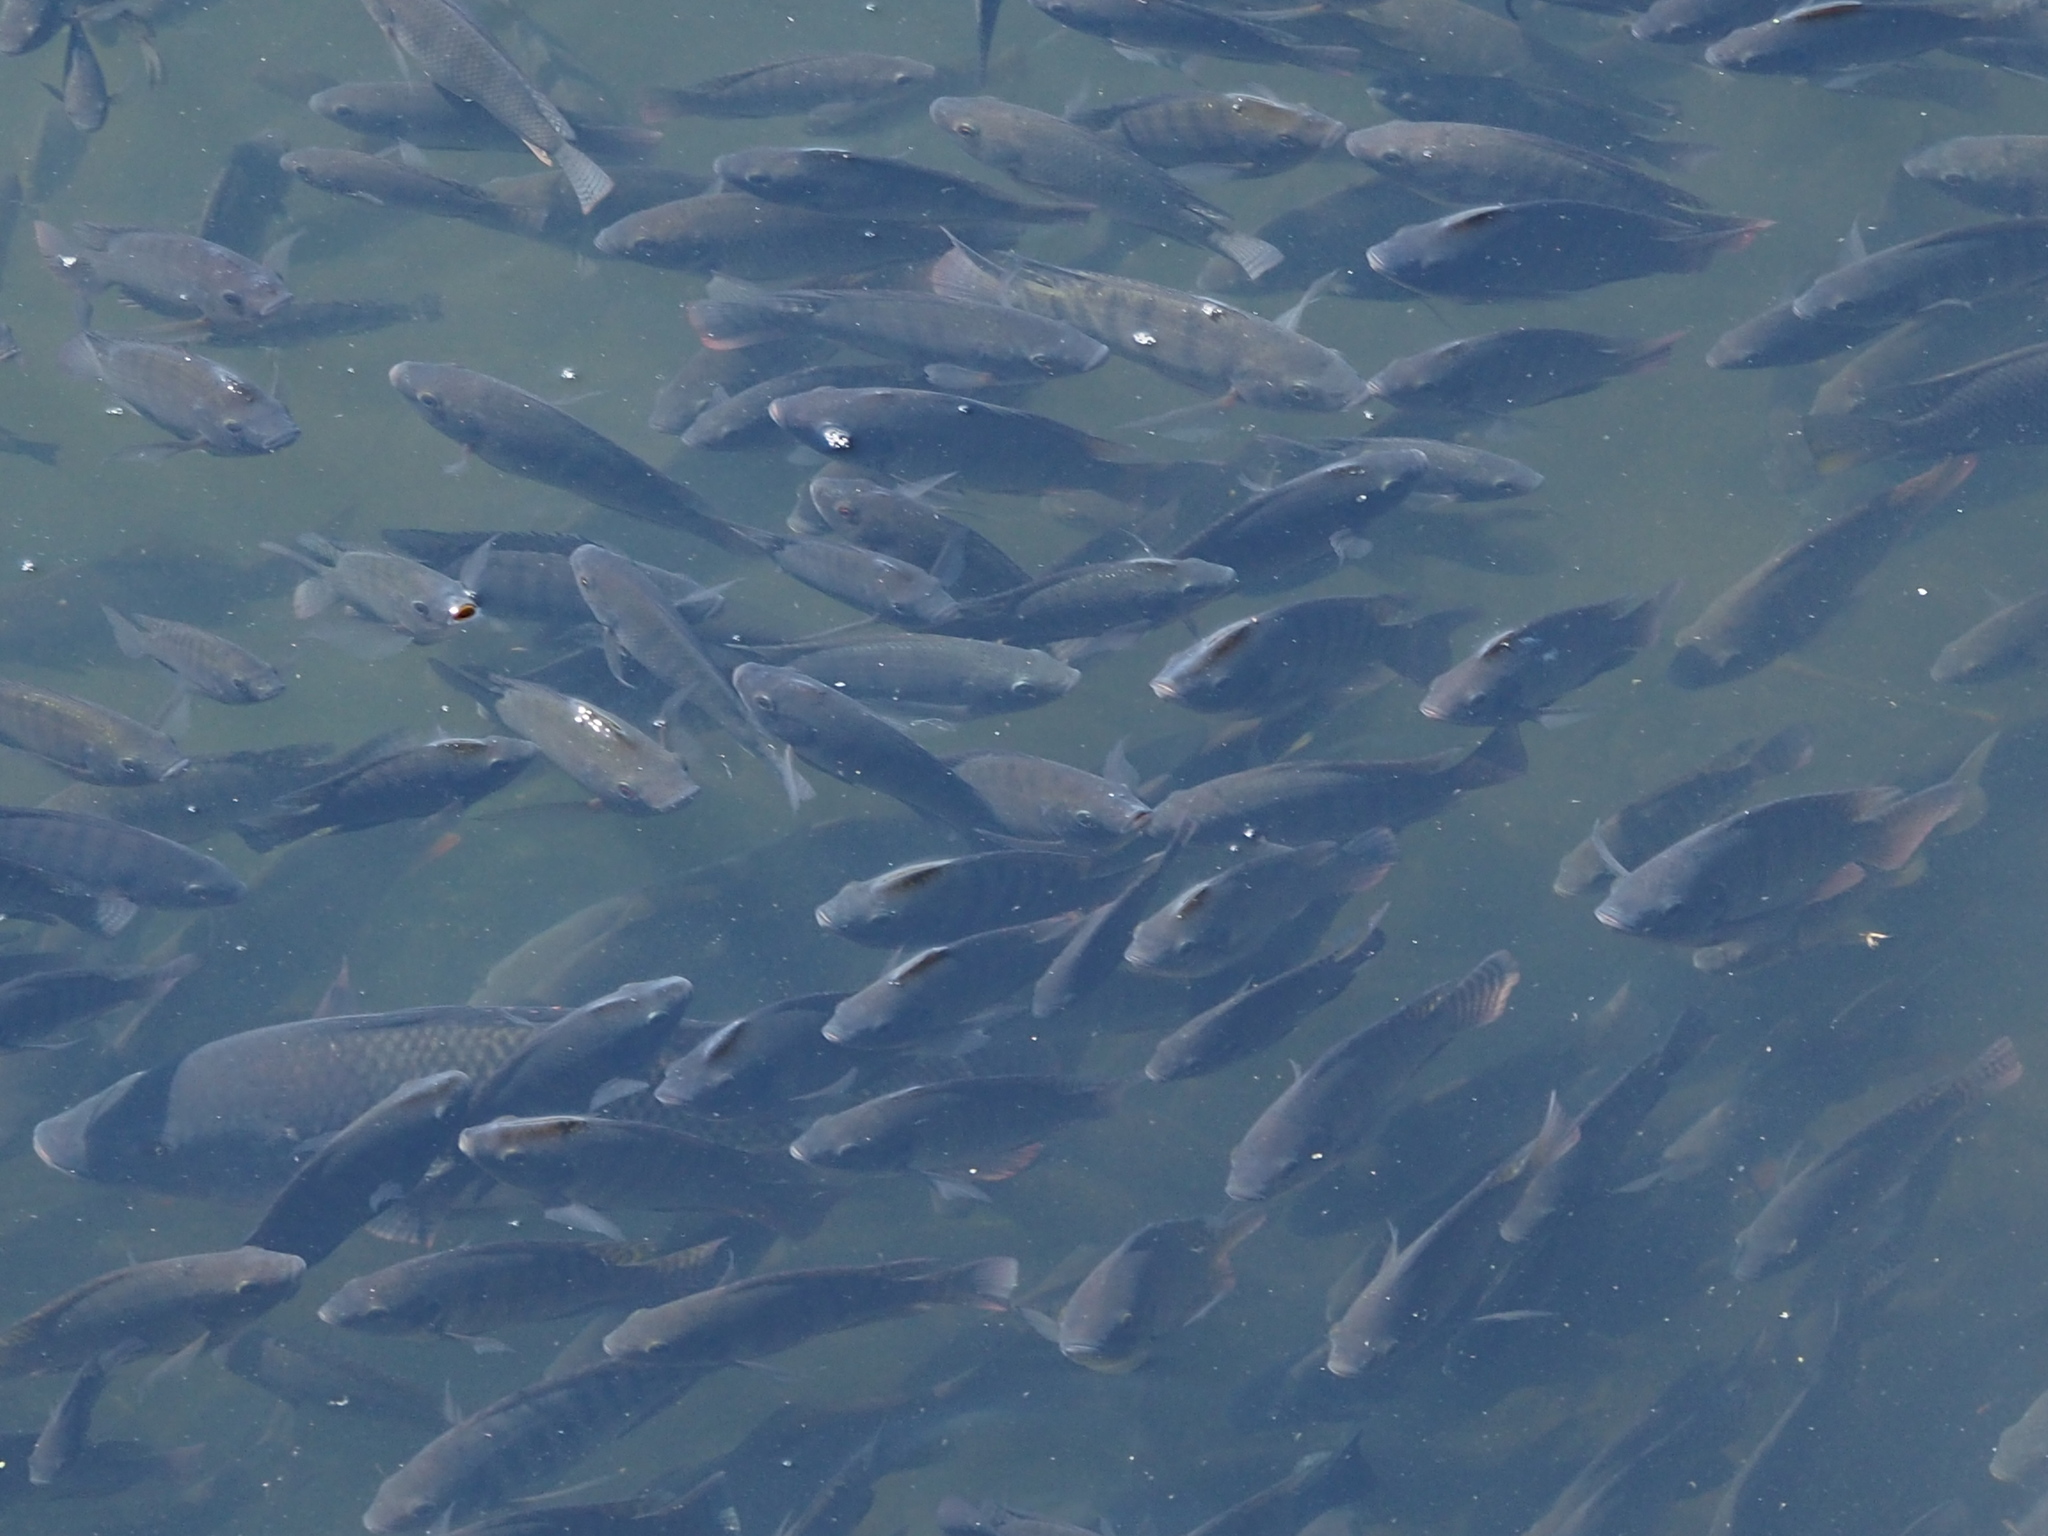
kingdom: Animalia
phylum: Chordata
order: Perciformes
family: Cichlidae
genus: Oreochromis
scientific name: Oreochromis mossambicus
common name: Mozambique tilapia
